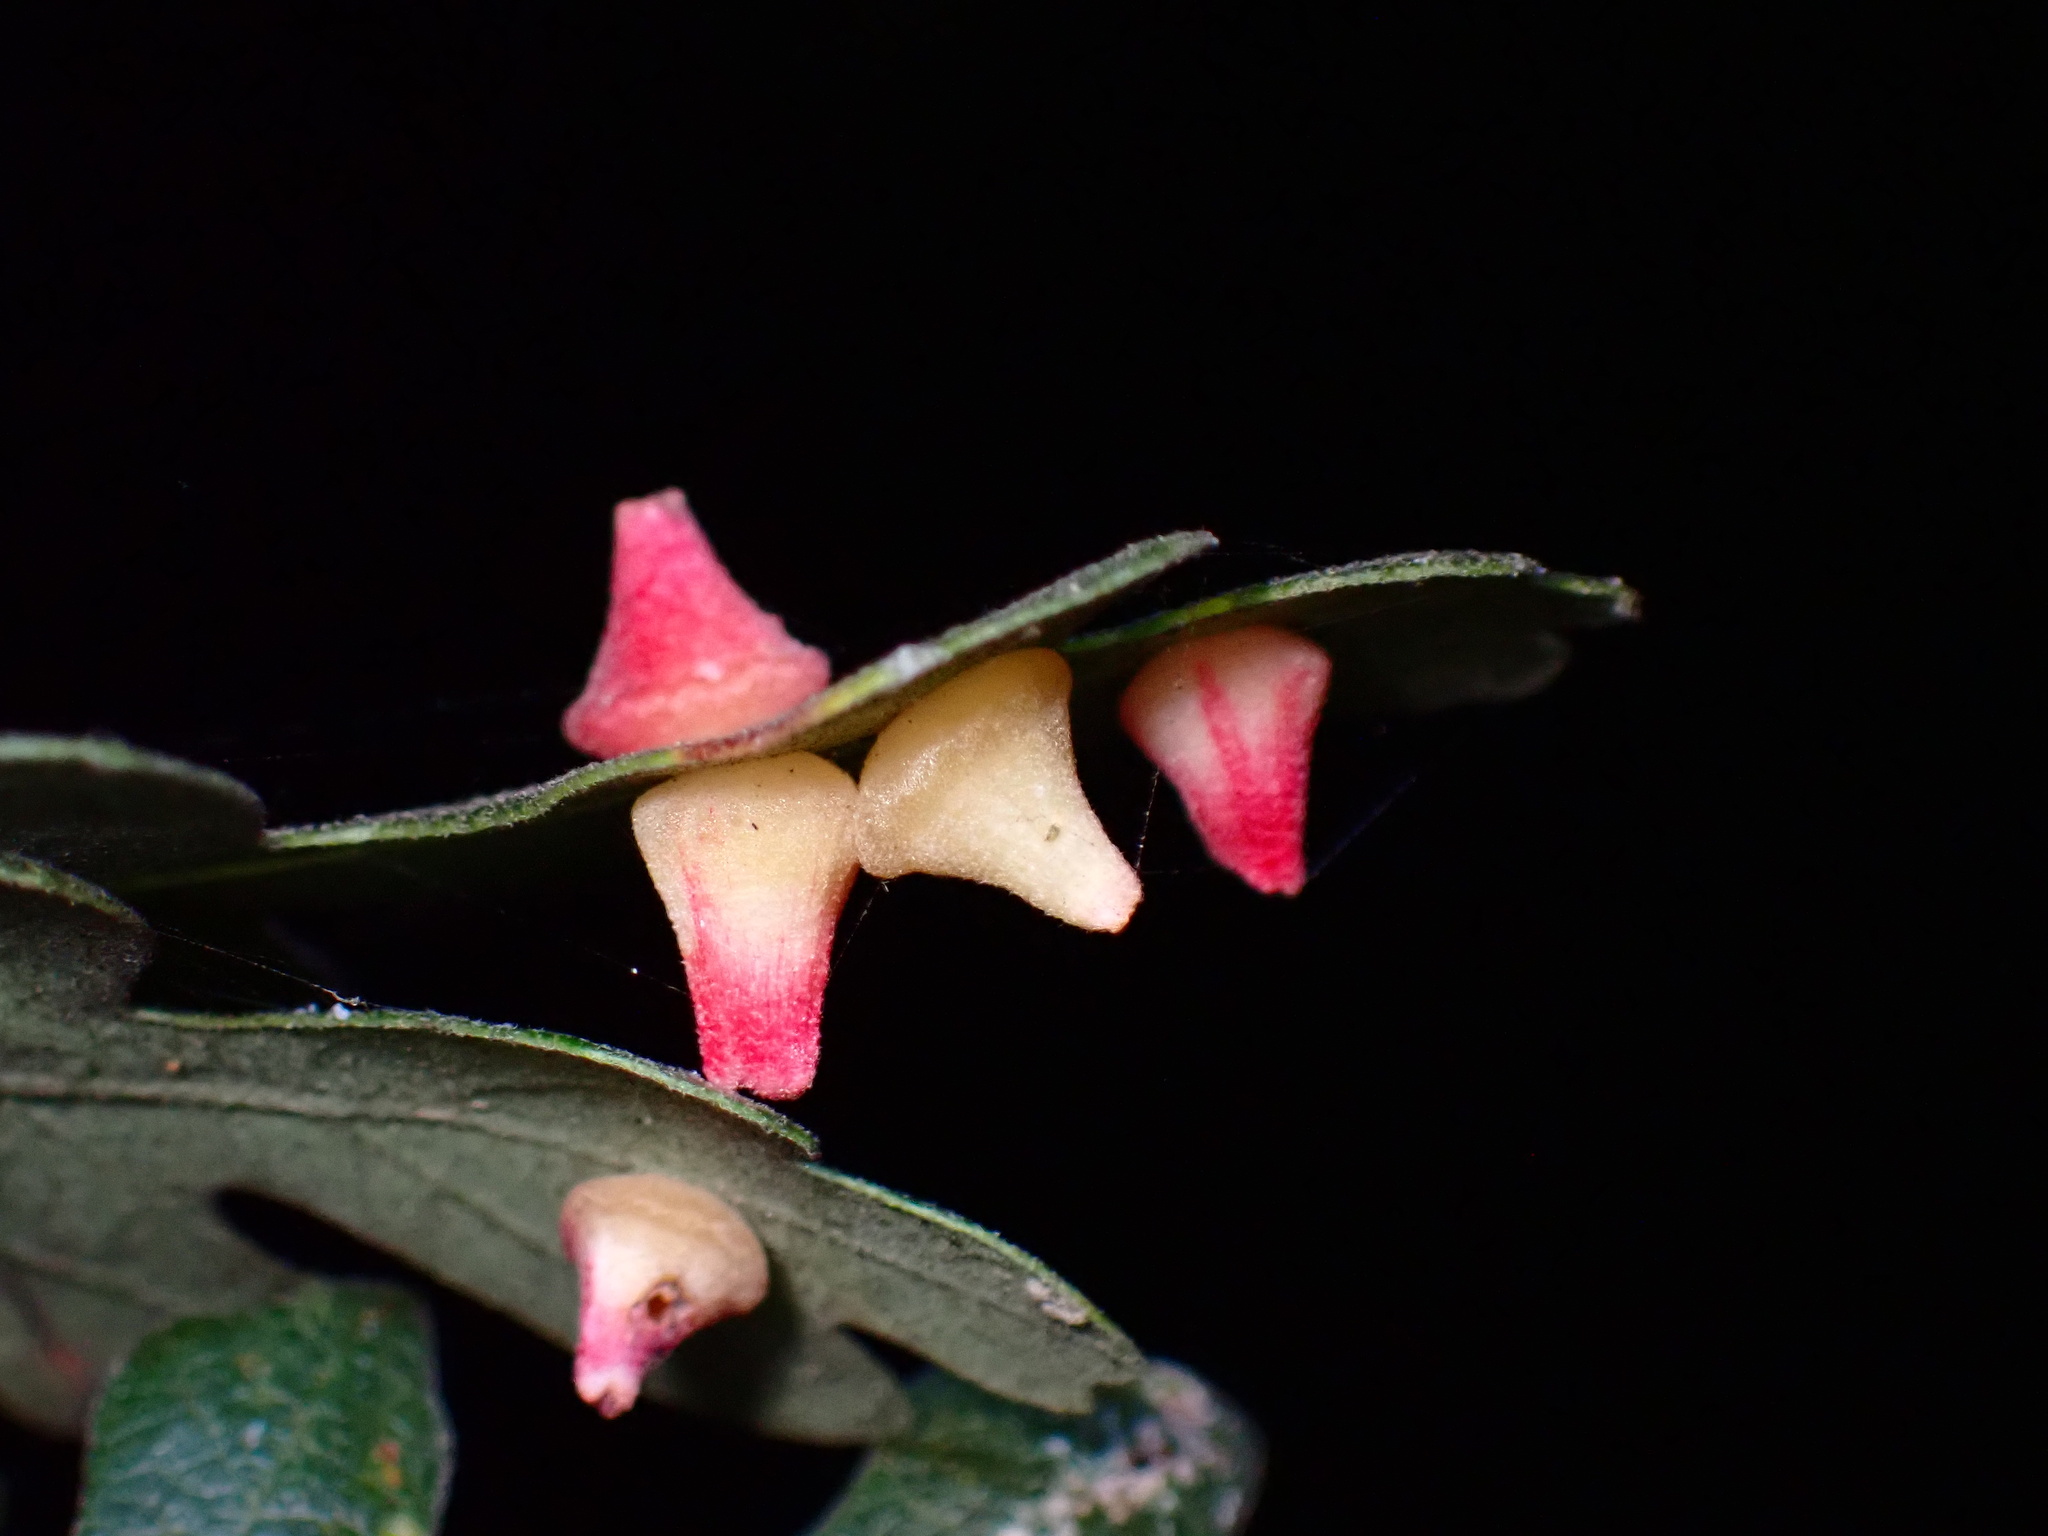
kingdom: Animalia
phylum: Arthropoda
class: Insecta
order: Hymenoptera
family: Cynipidae
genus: Andricus
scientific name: Andricus
